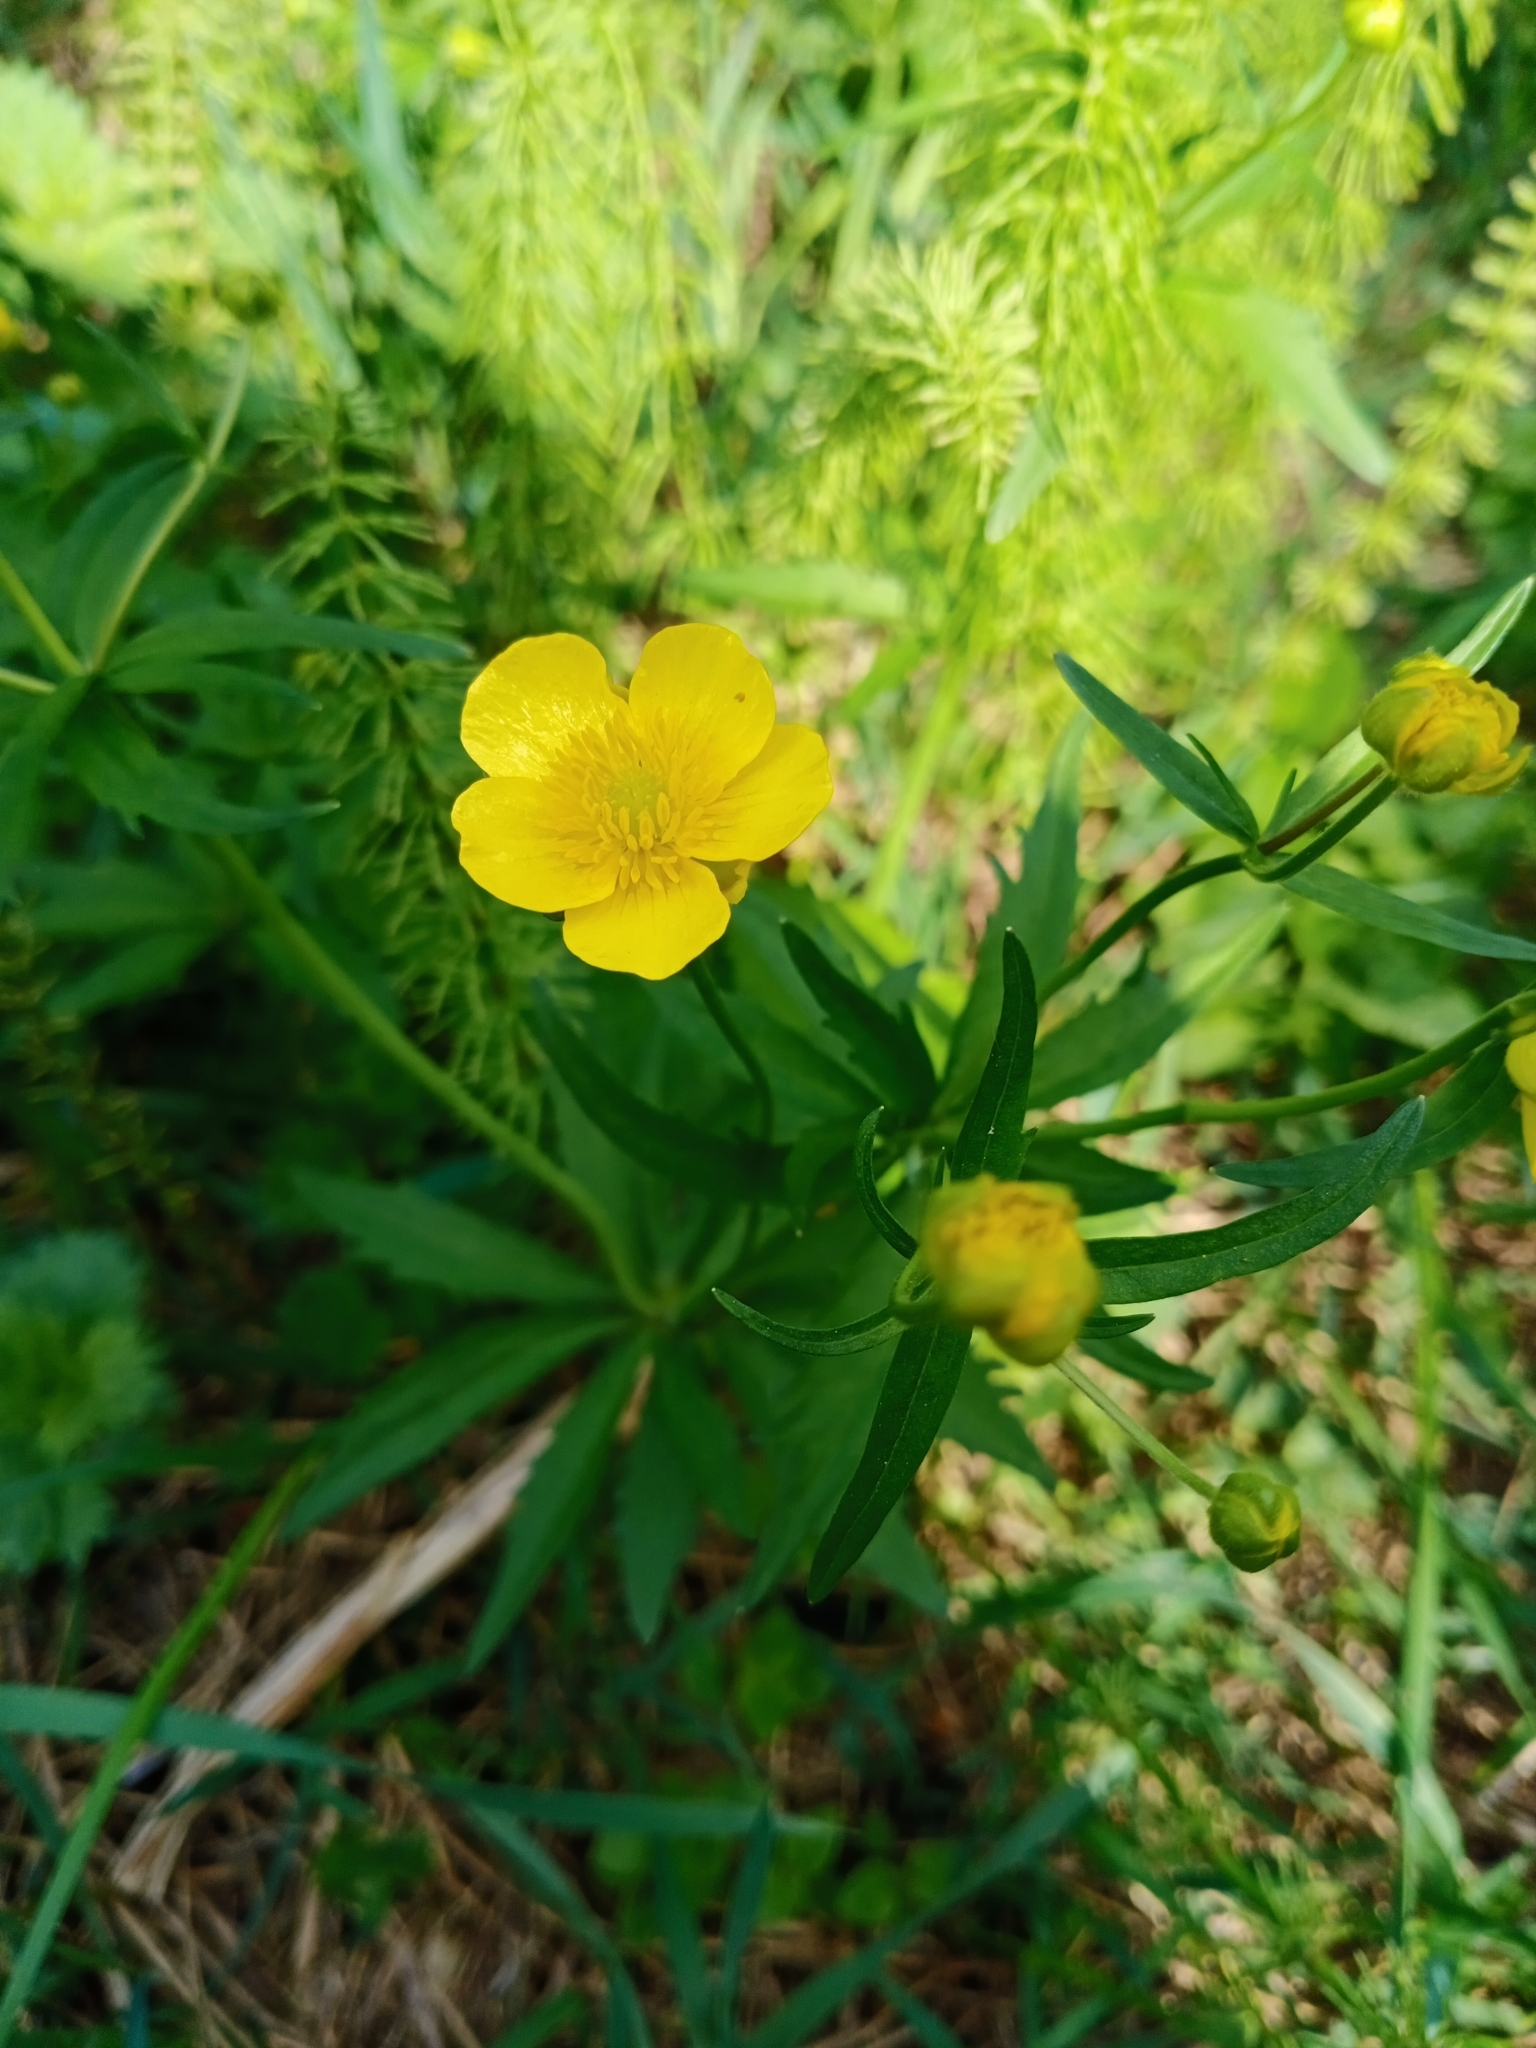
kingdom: Plantae
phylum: Tracheophyta
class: Magnoliopsida
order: Ranunculales
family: Ranunculaceae
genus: Ranunculus
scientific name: Ranunculus cassubicus
